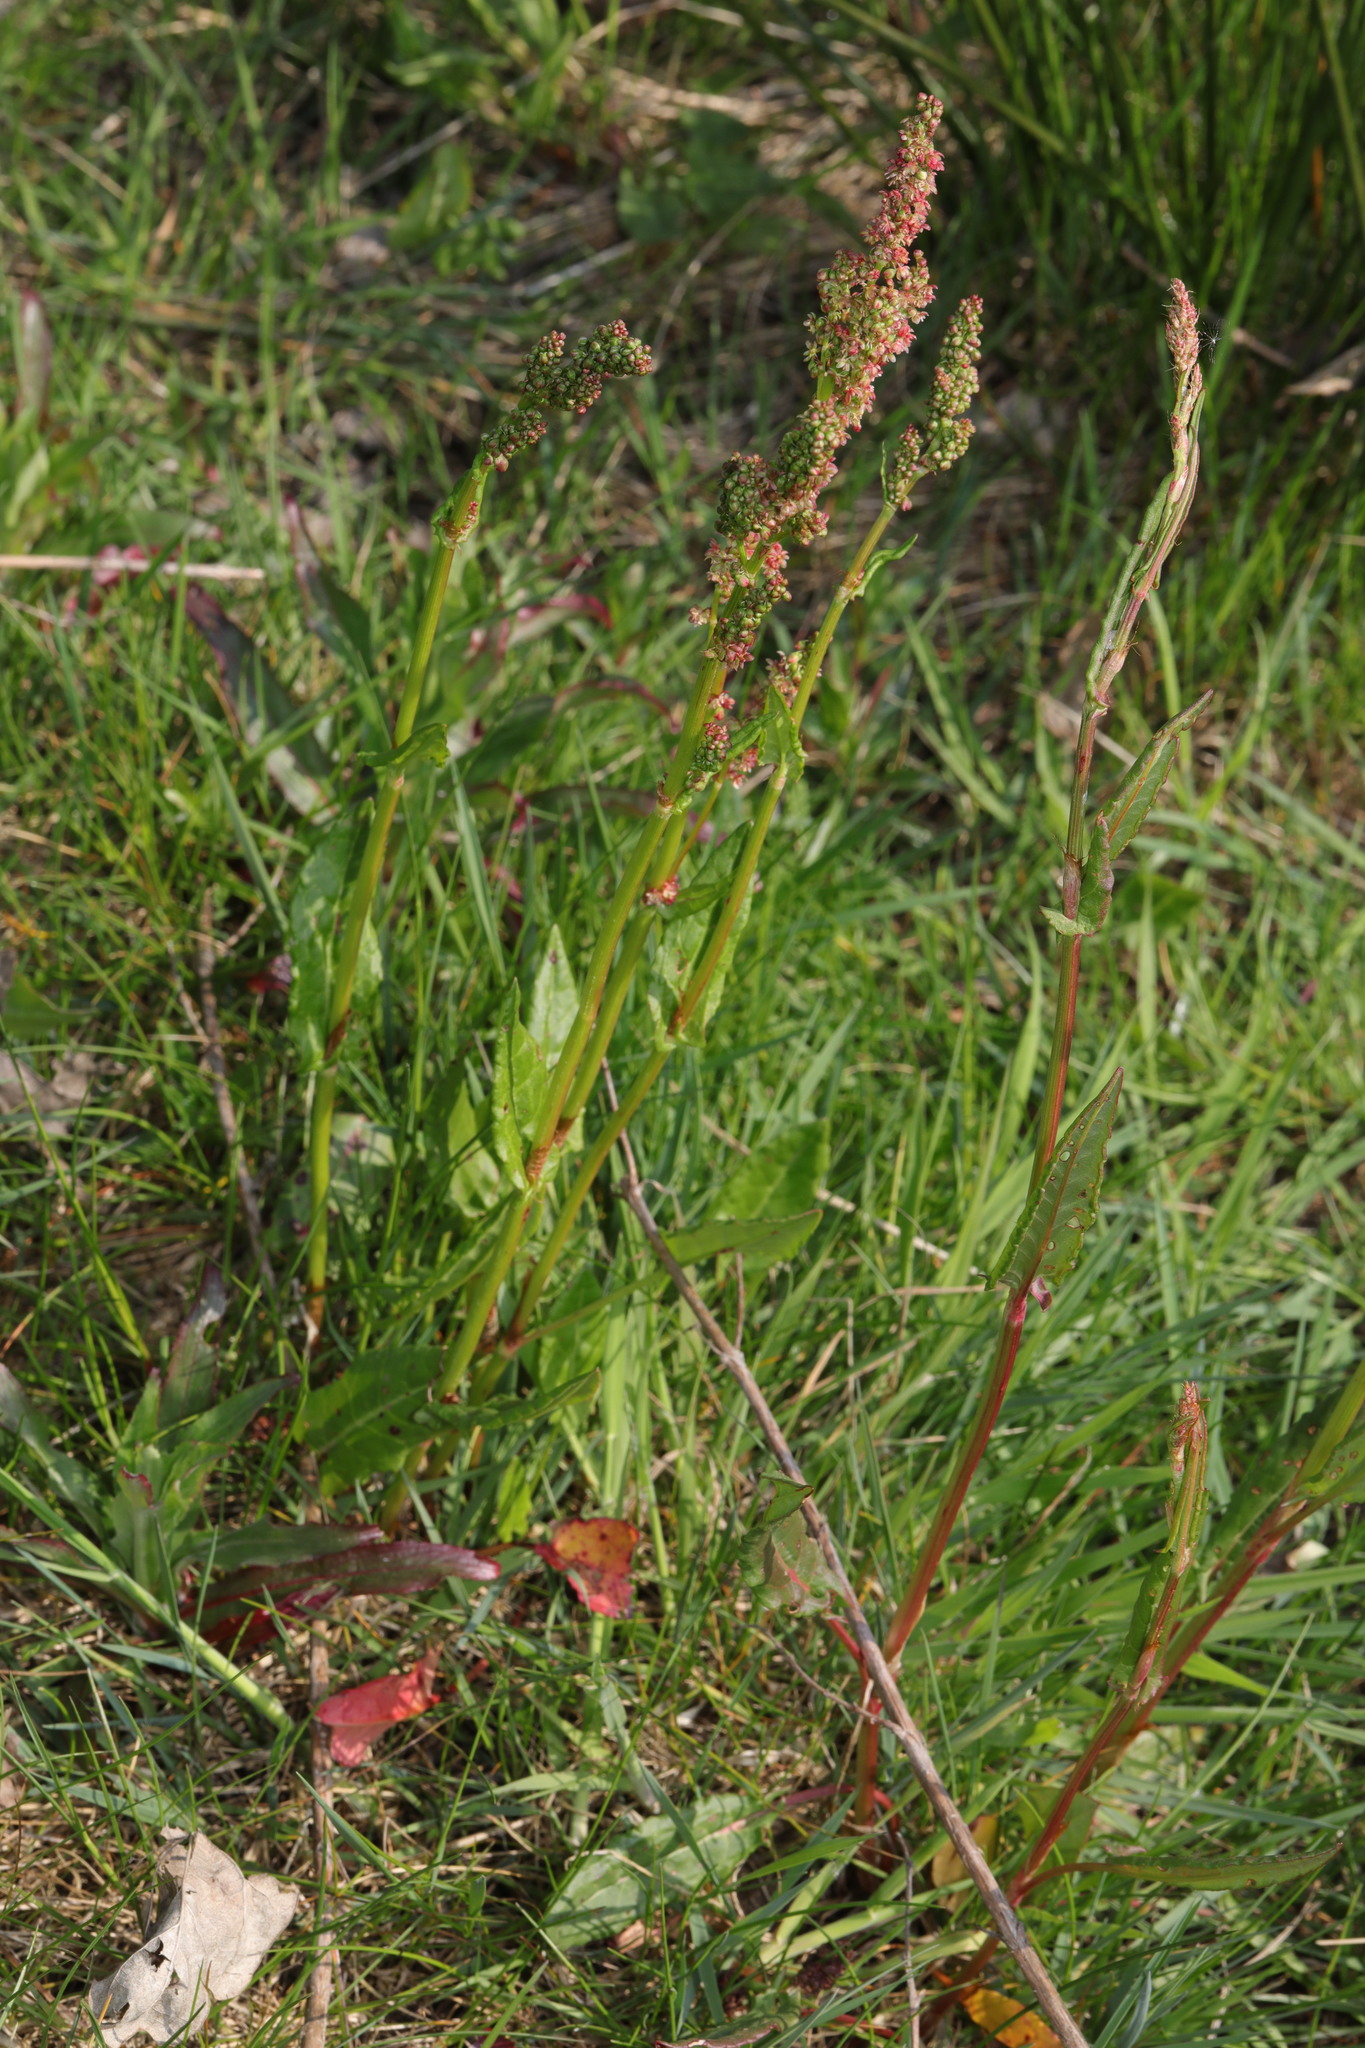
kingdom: Plantae
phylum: Tracheophyta
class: Magnoliopsida
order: Caryophyllales
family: Polygonaceae
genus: Rumex
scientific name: Rumex acetosa
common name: Garden sorrel
